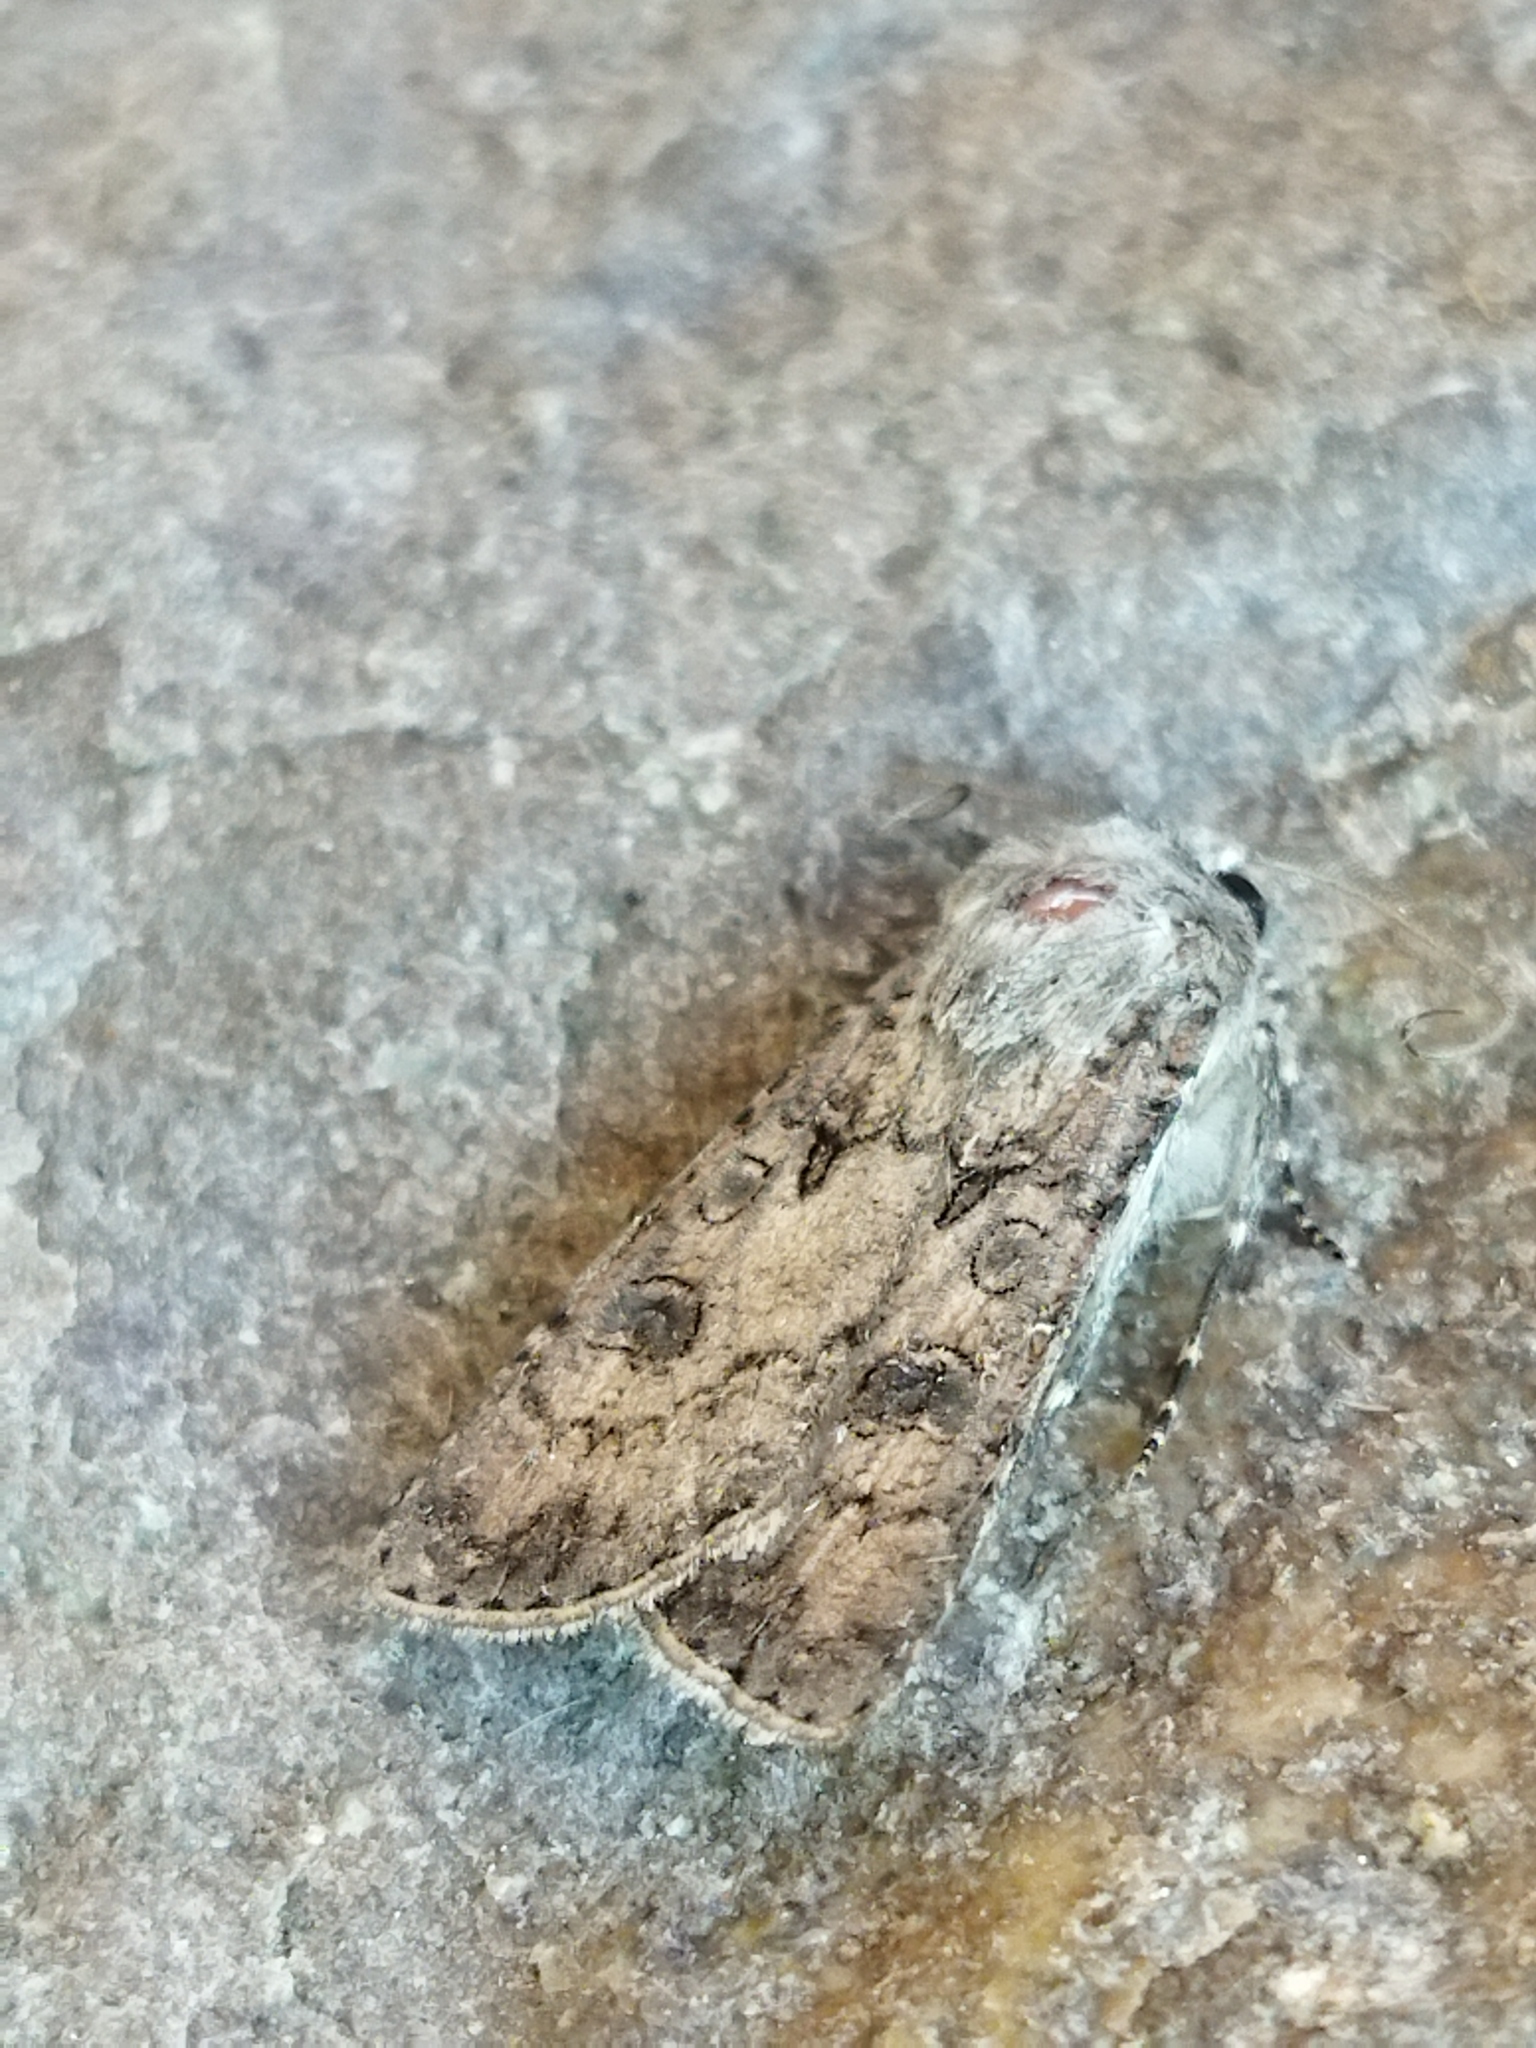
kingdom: Animalia
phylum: Arthropoda
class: Insecta
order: Lepidoptera
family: Noctuidae
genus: Agrotis
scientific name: Agrotis segetum
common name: Turnip moth
